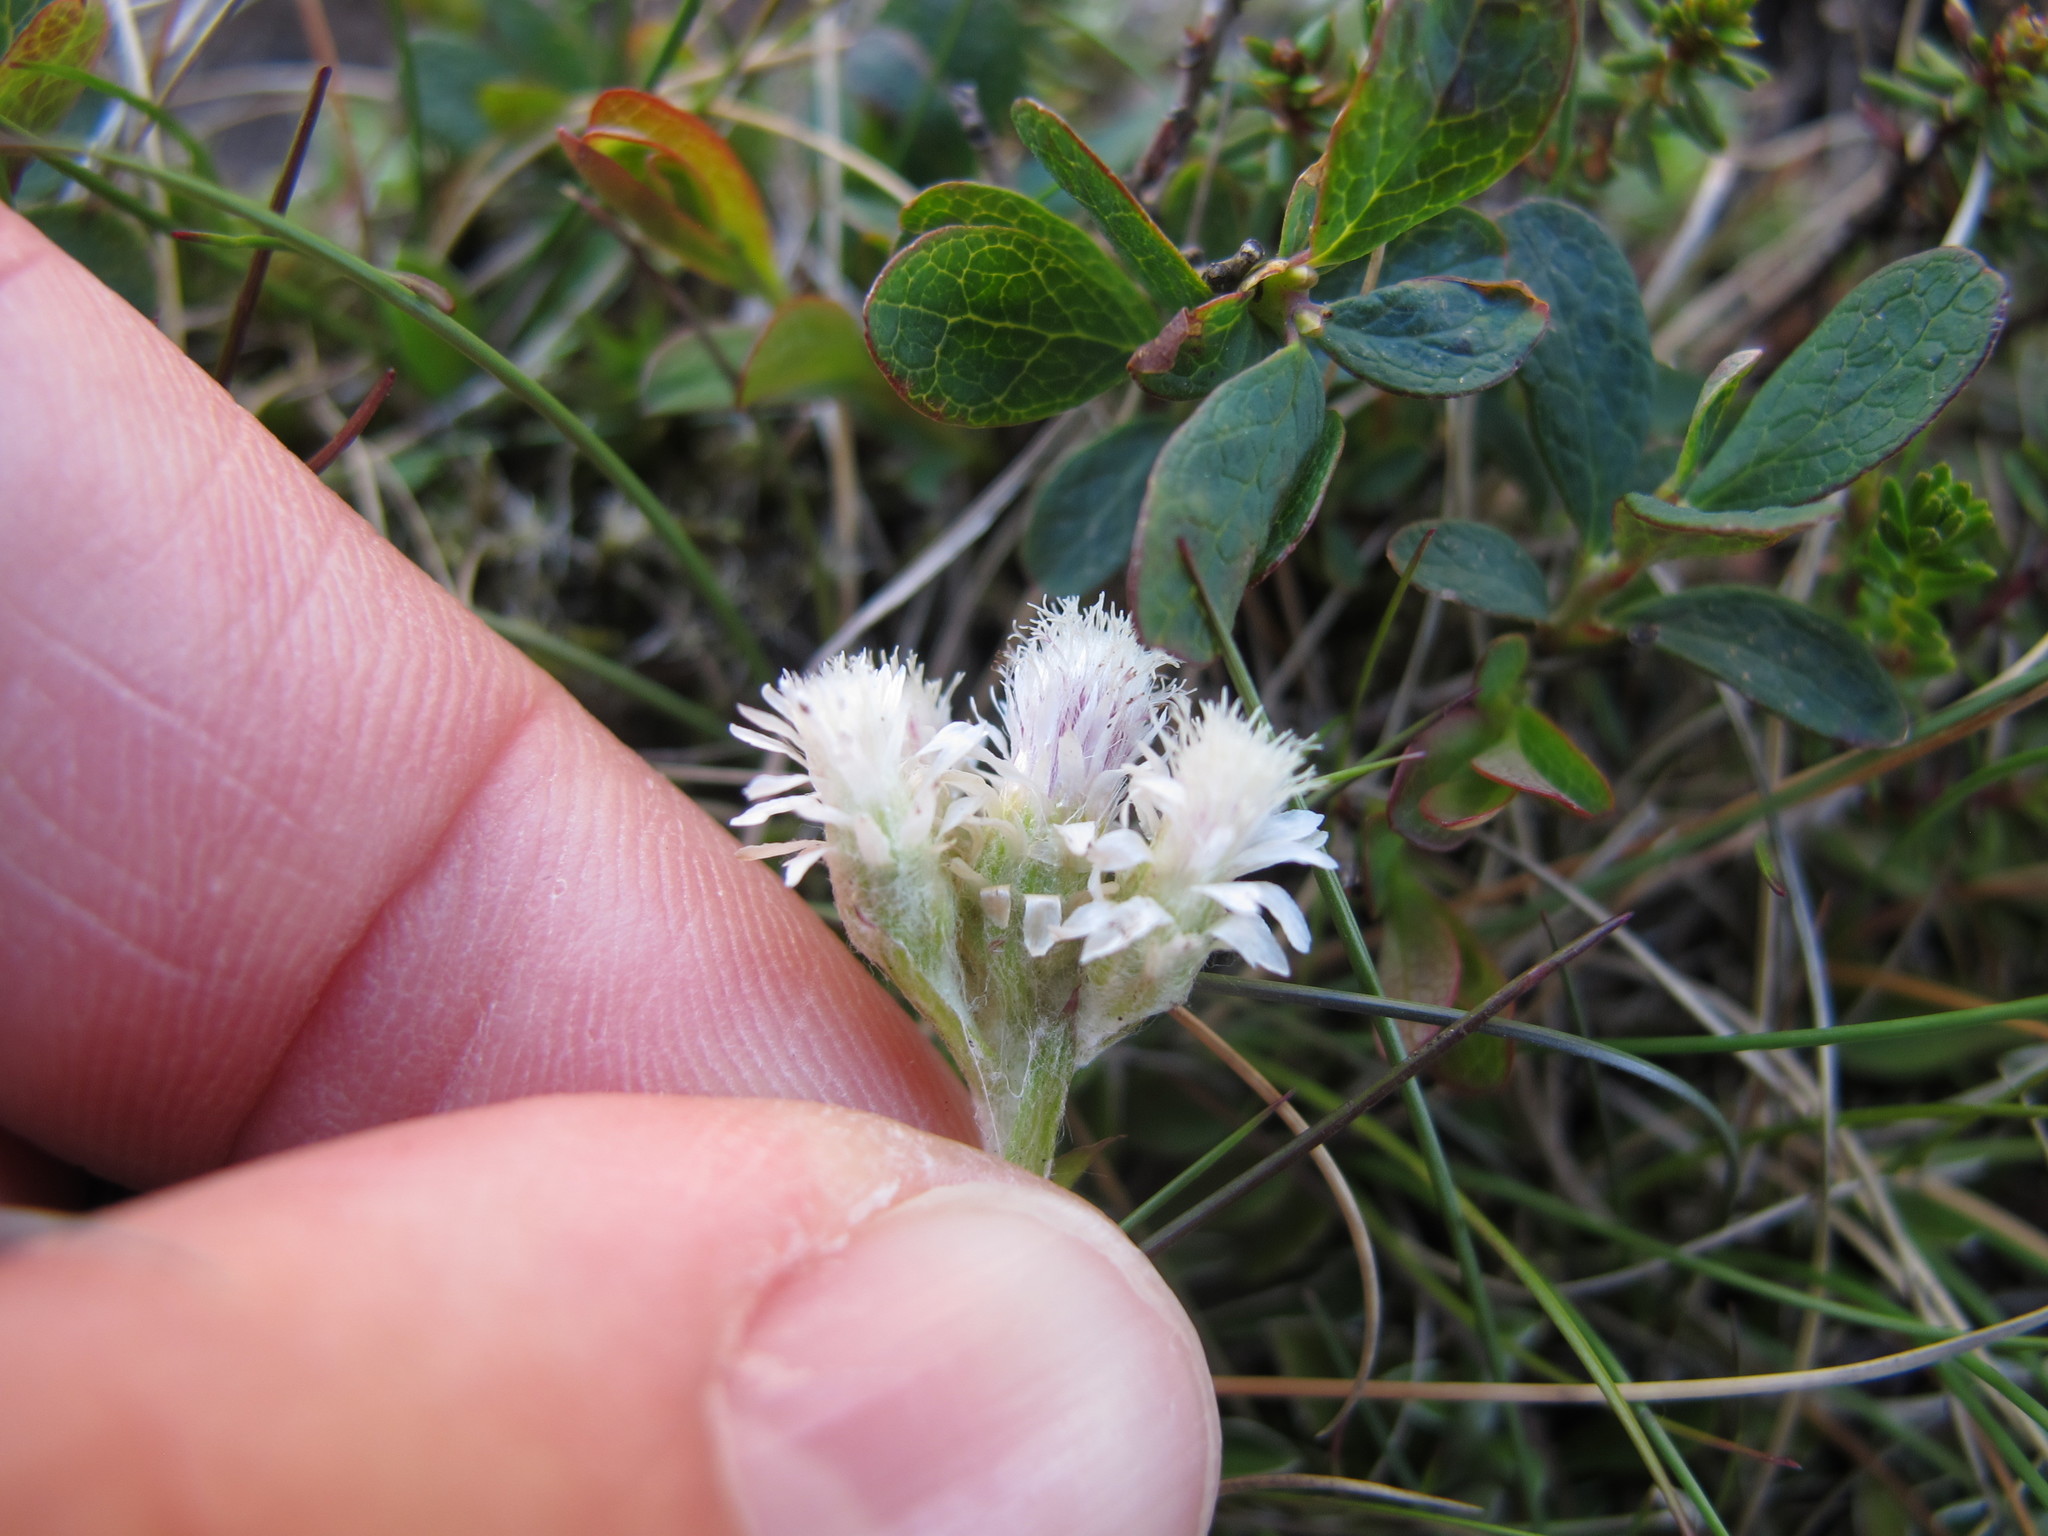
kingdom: Plantae
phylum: Tracheophyta
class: Magnoliopsida
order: Asterales
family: Asteraceae
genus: Antennaria
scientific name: Antennaria dioica
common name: Mountain everlasting
